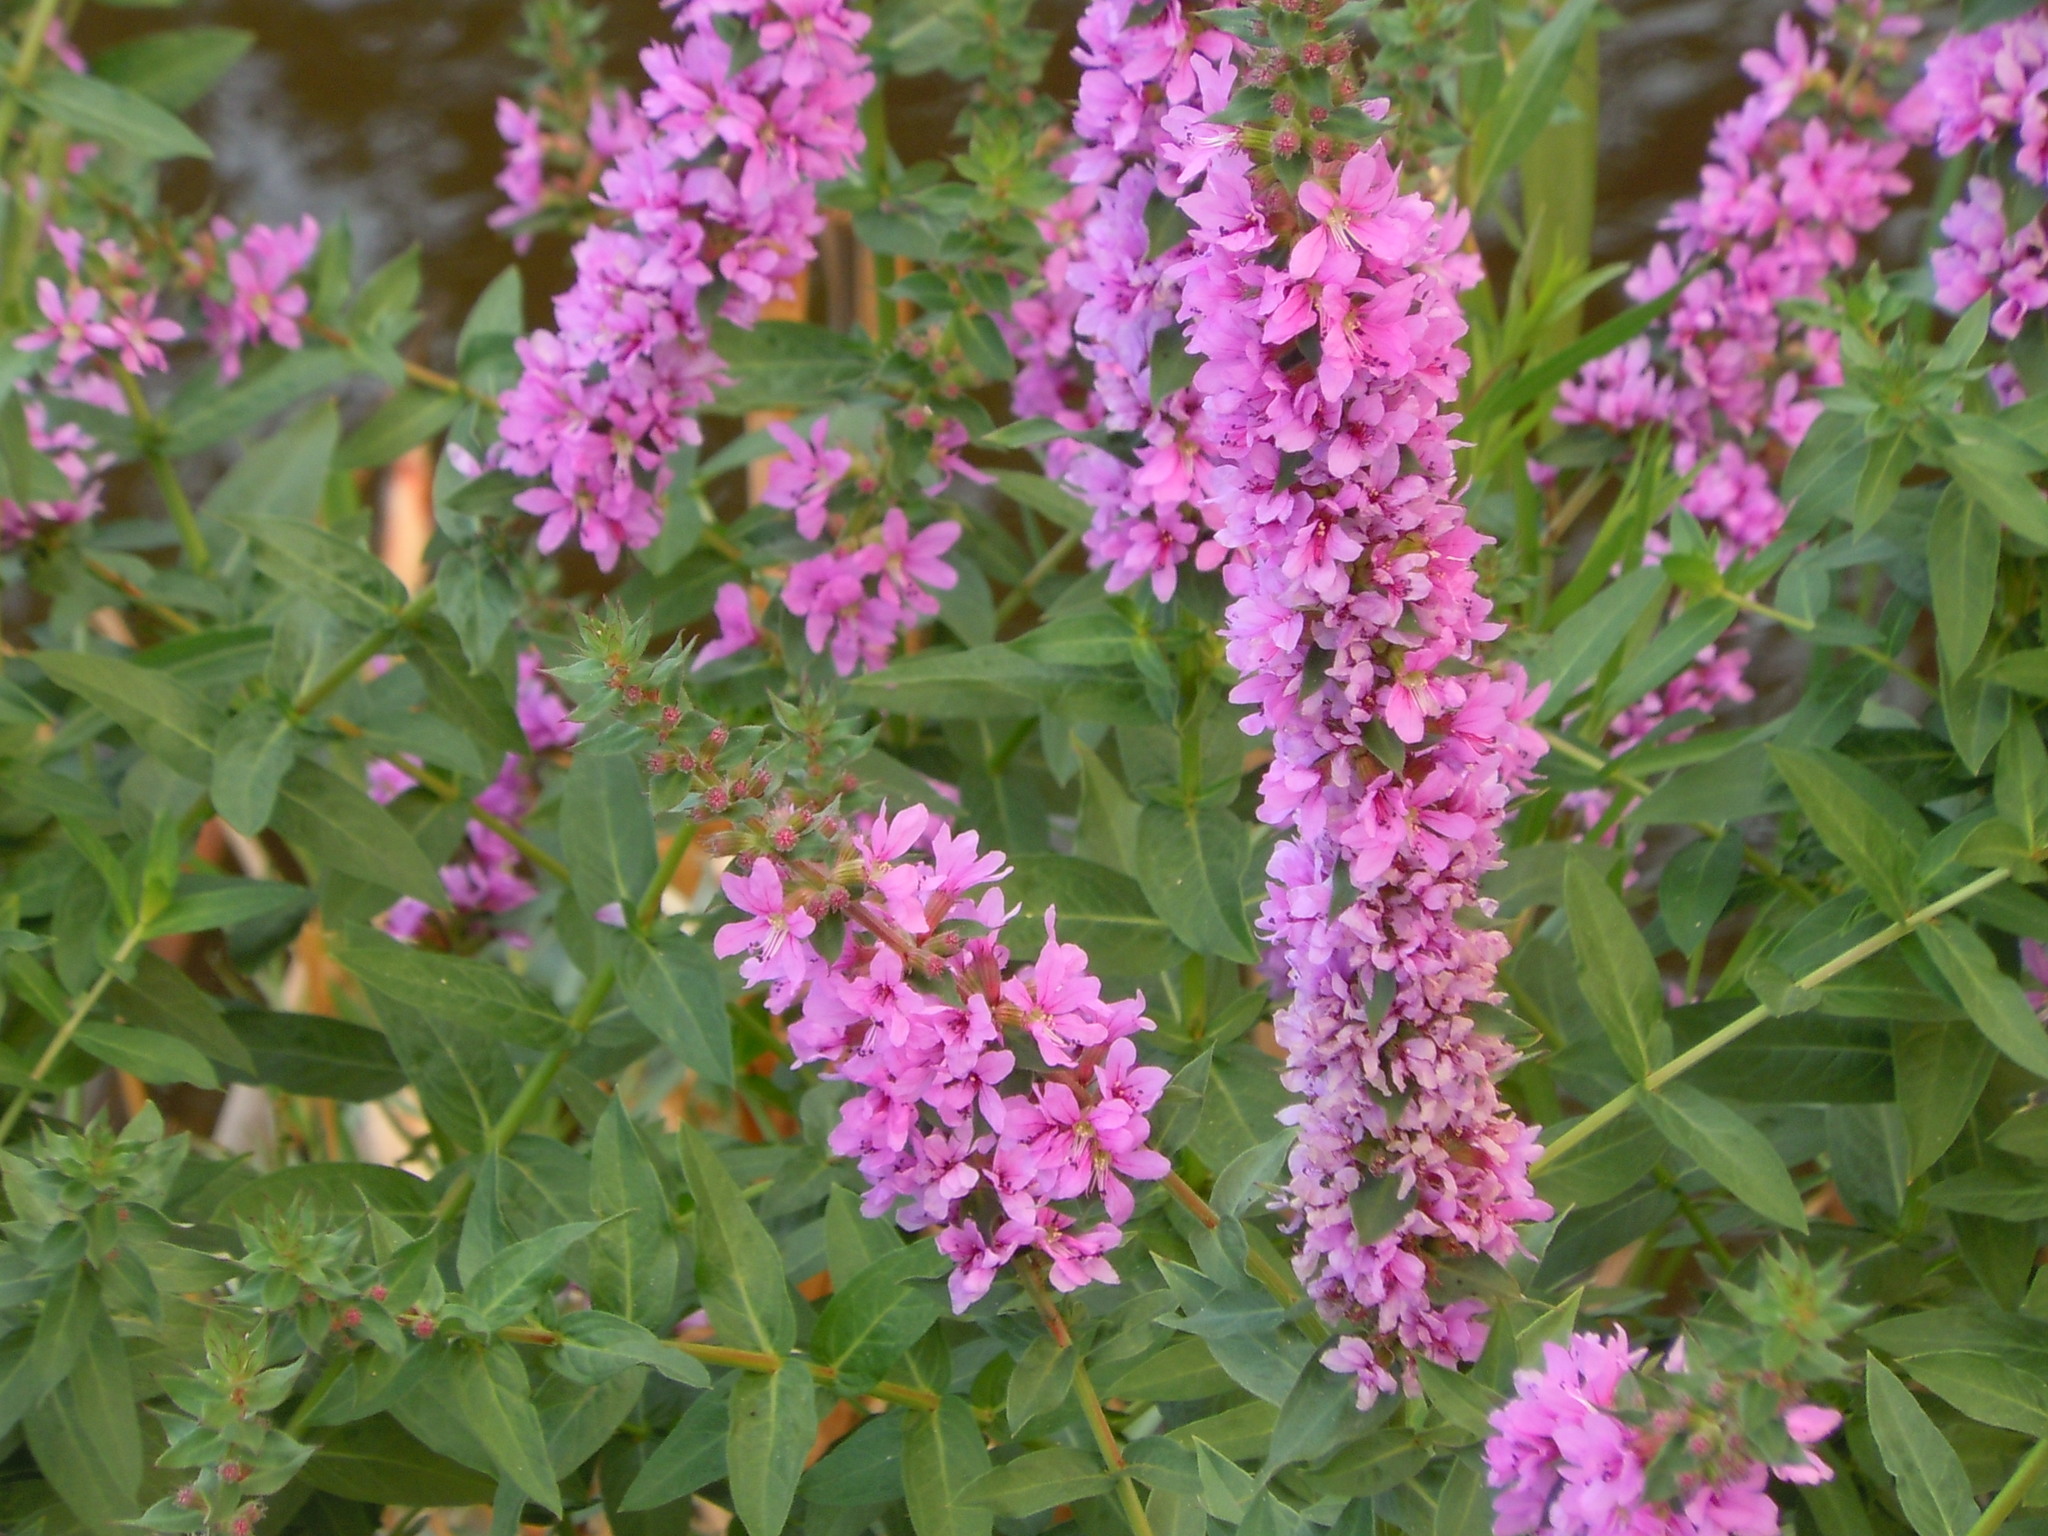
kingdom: Plantae
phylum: Tracheophyta
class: Magnoliopsida
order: Myrtales
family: Lythraceae
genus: Lythrum
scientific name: Lythrum salicaria
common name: Purple loosestrife
